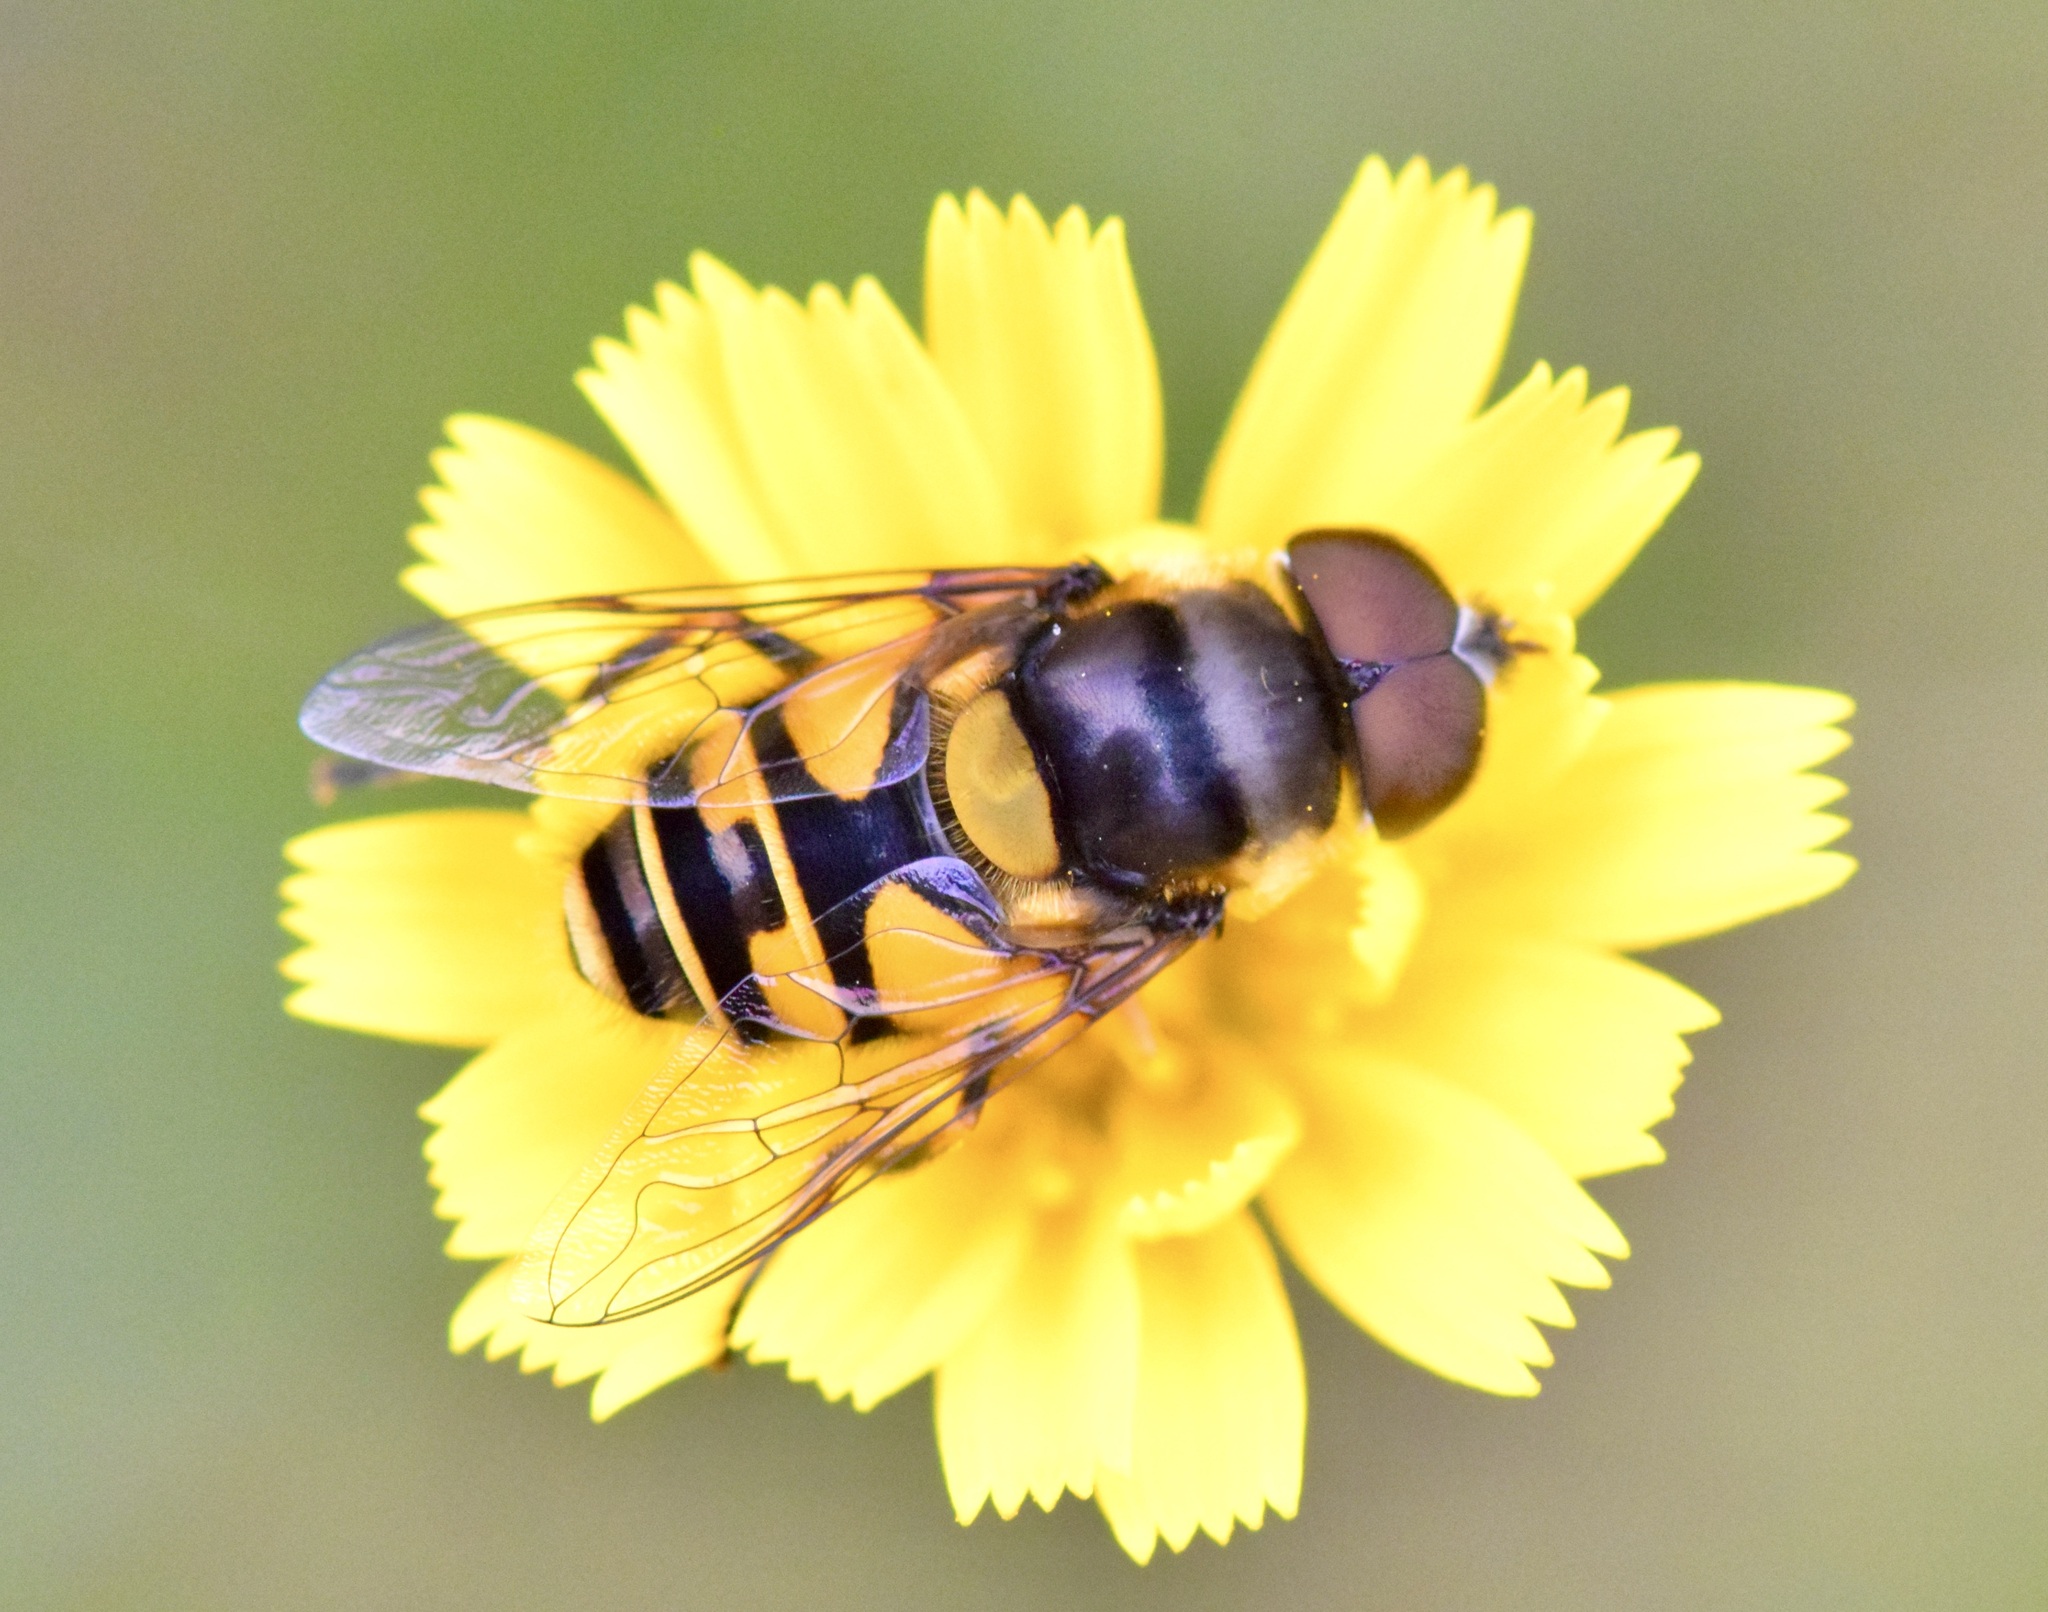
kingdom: Animalia
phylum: Arthropoda
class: Insecta
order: Diptera
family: Syrphidae
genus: Eristalis
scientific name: Eristalis transversa
